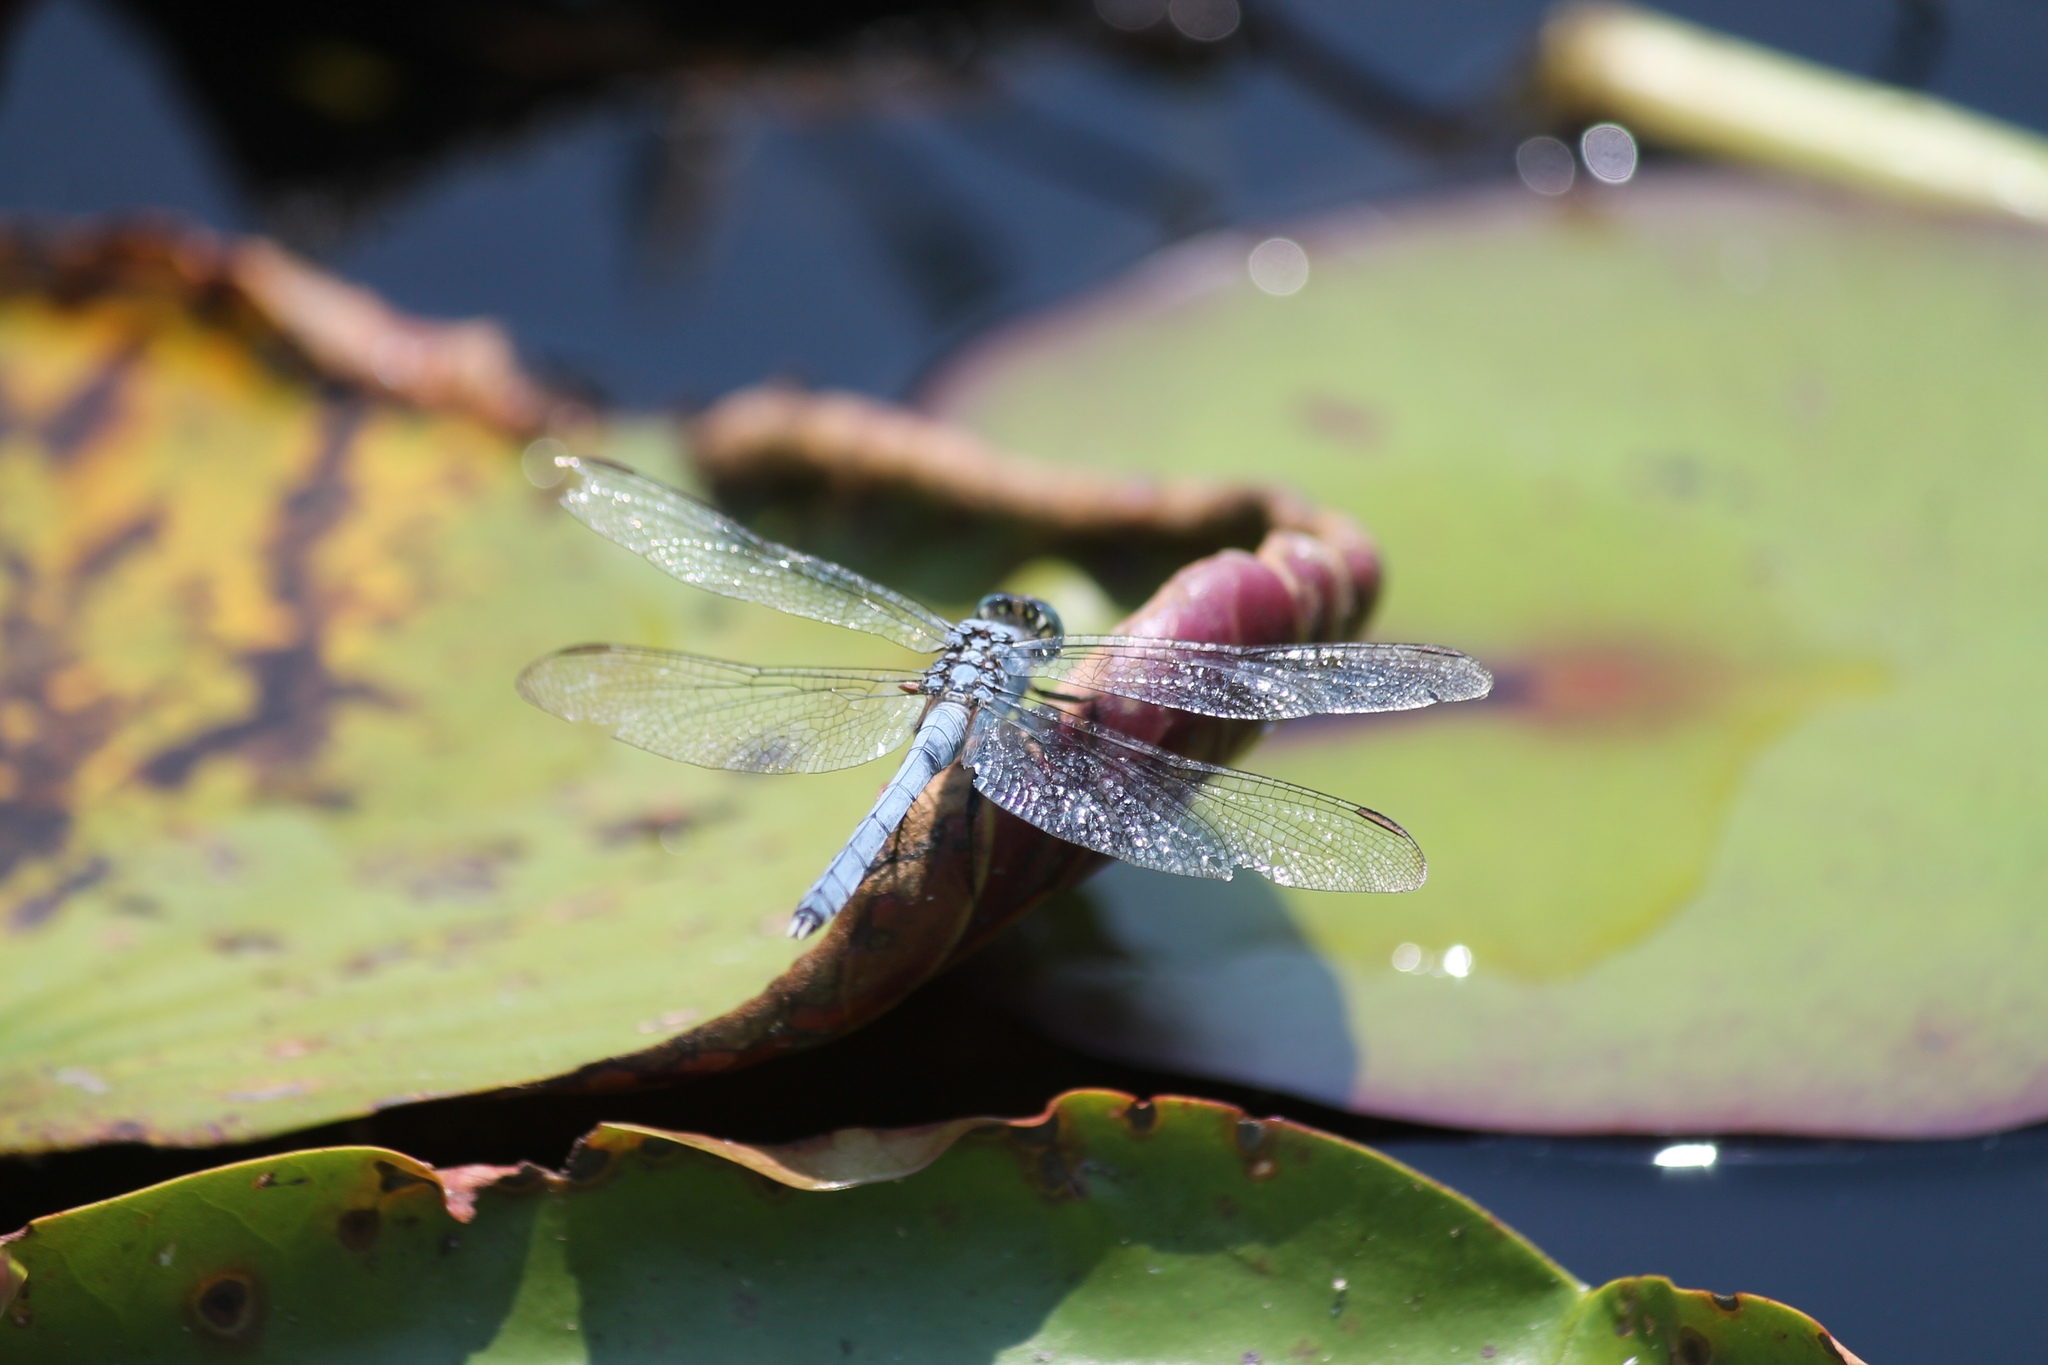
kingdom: Animalia
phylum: Arthropoda
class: Insecta
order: Odonata
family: Libellulidae
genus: Erythemis
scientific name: Erythemis simplicicollis
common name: Eastern pondhawk
